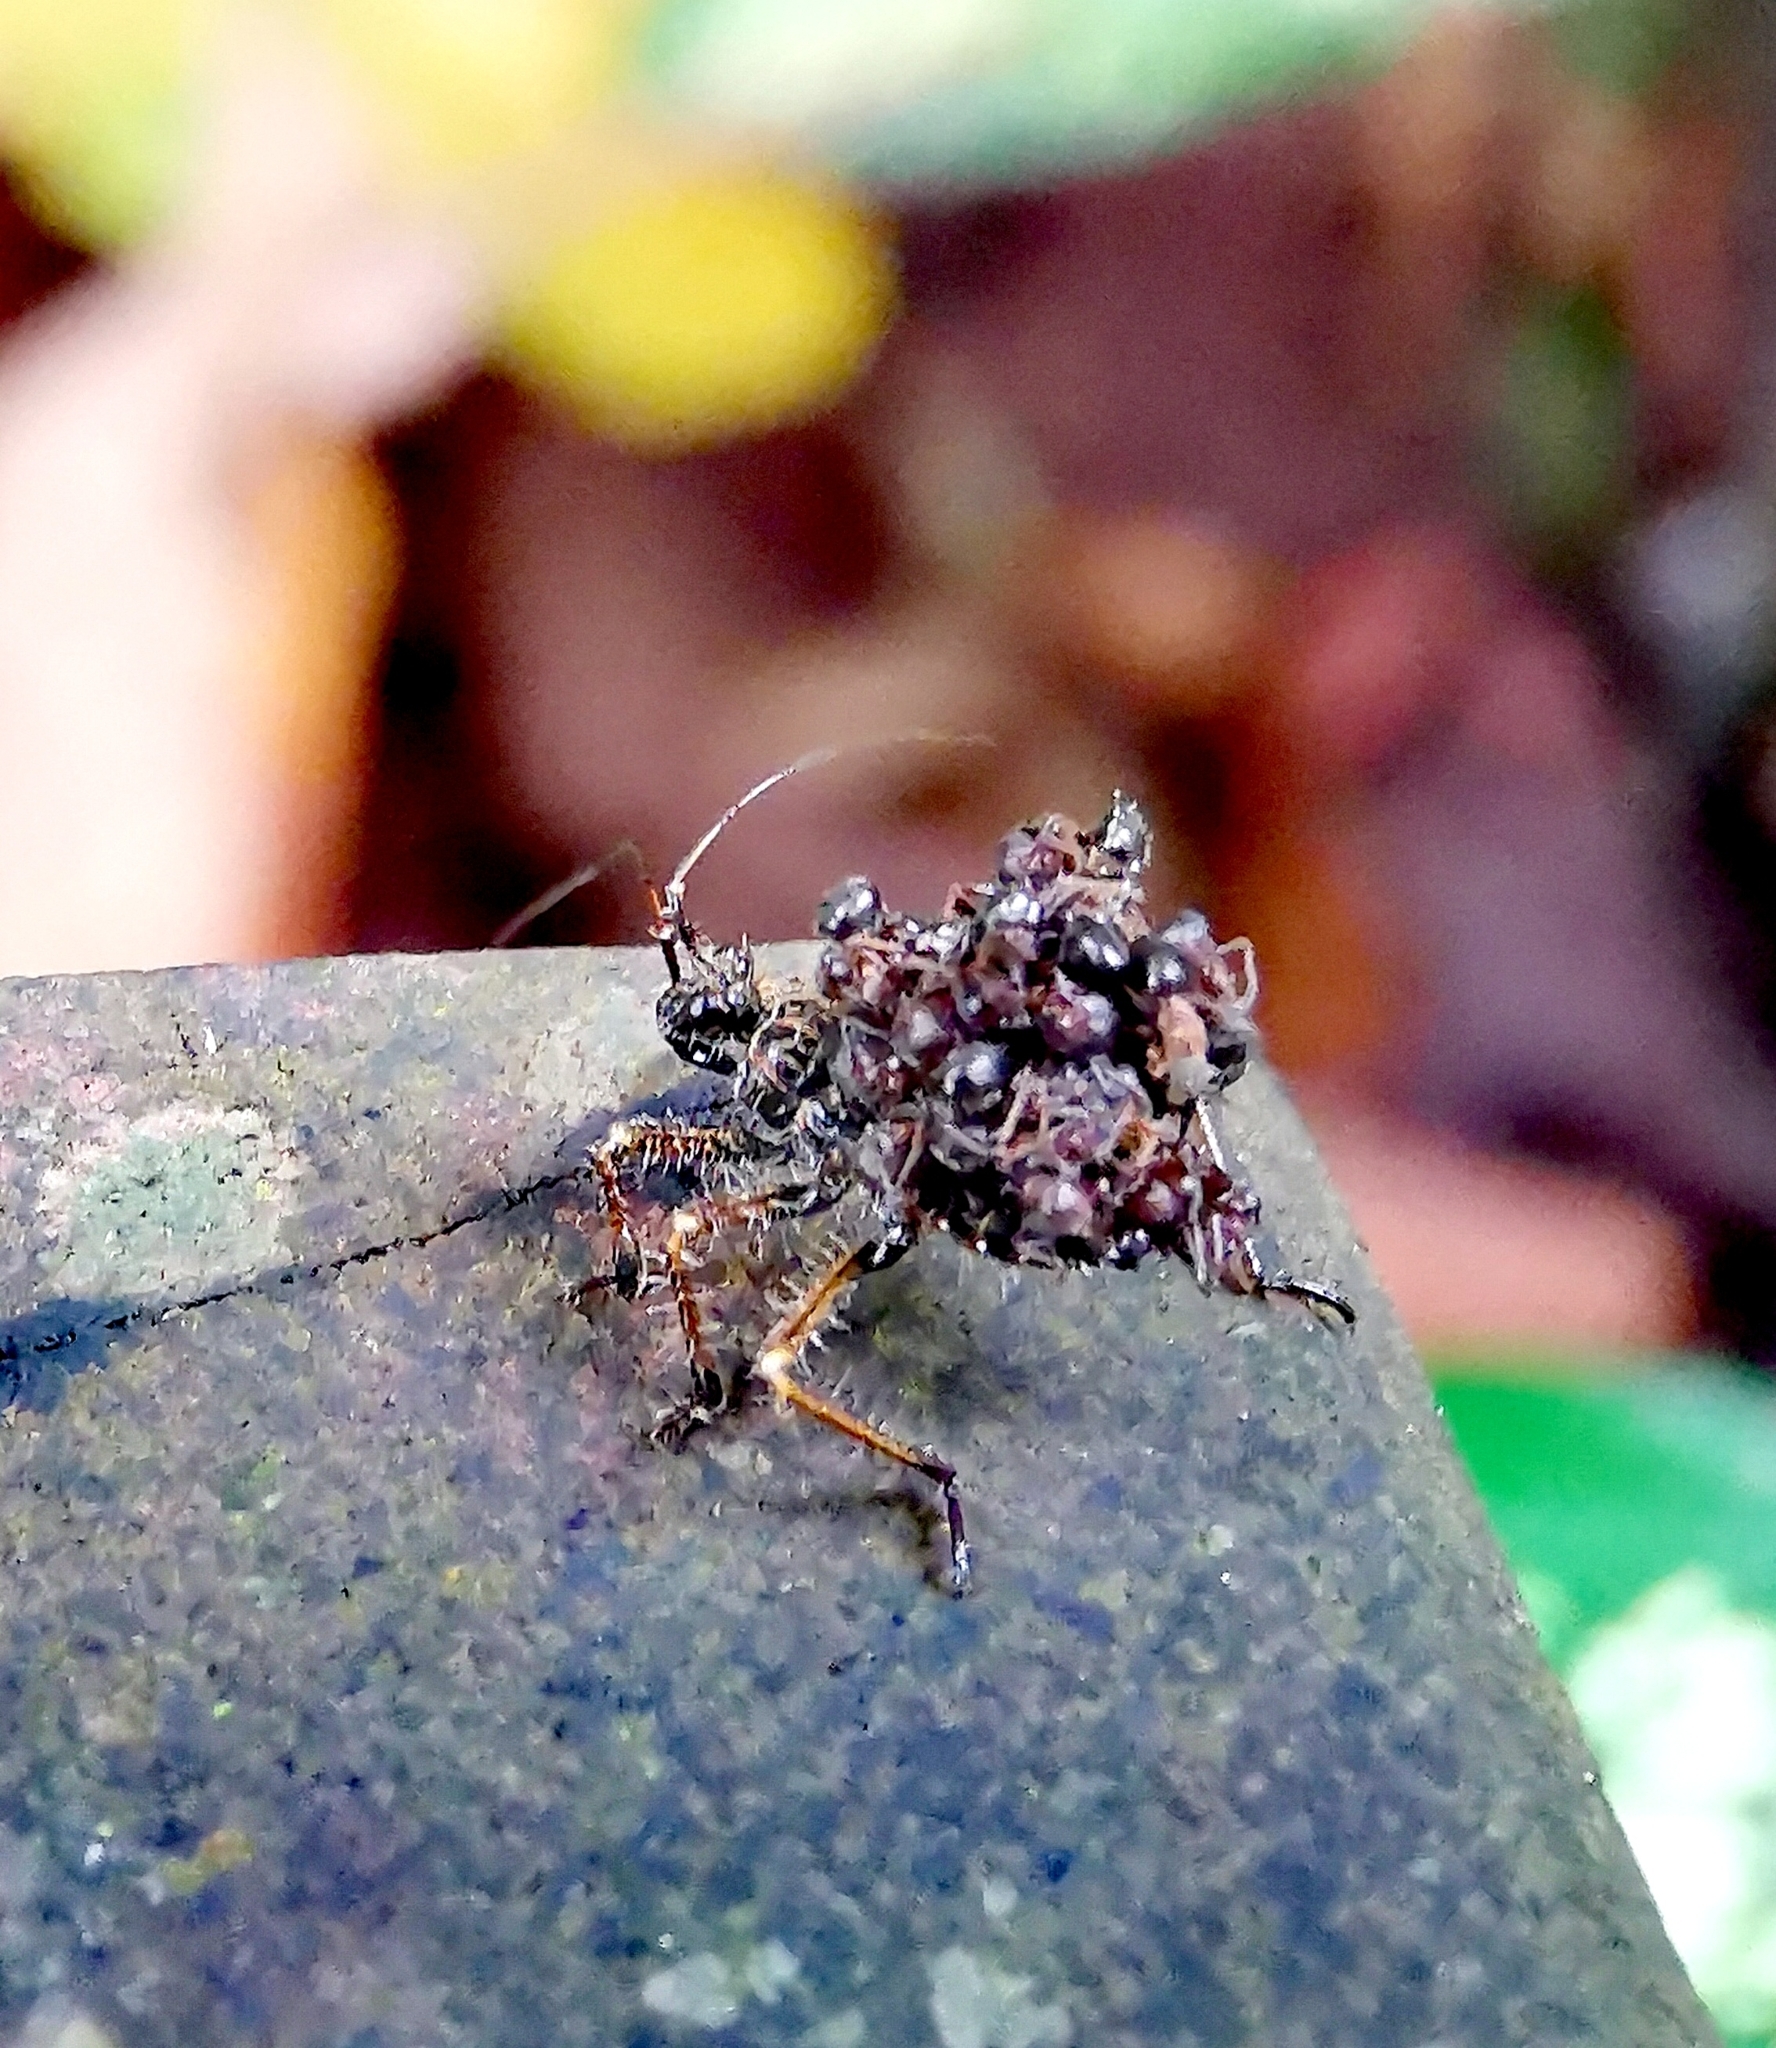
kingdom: Animalia
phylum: Arthropoda
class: Insecta
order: Hemiptera
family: Reduviidae
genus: Inara
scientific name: Inara flavopicta
